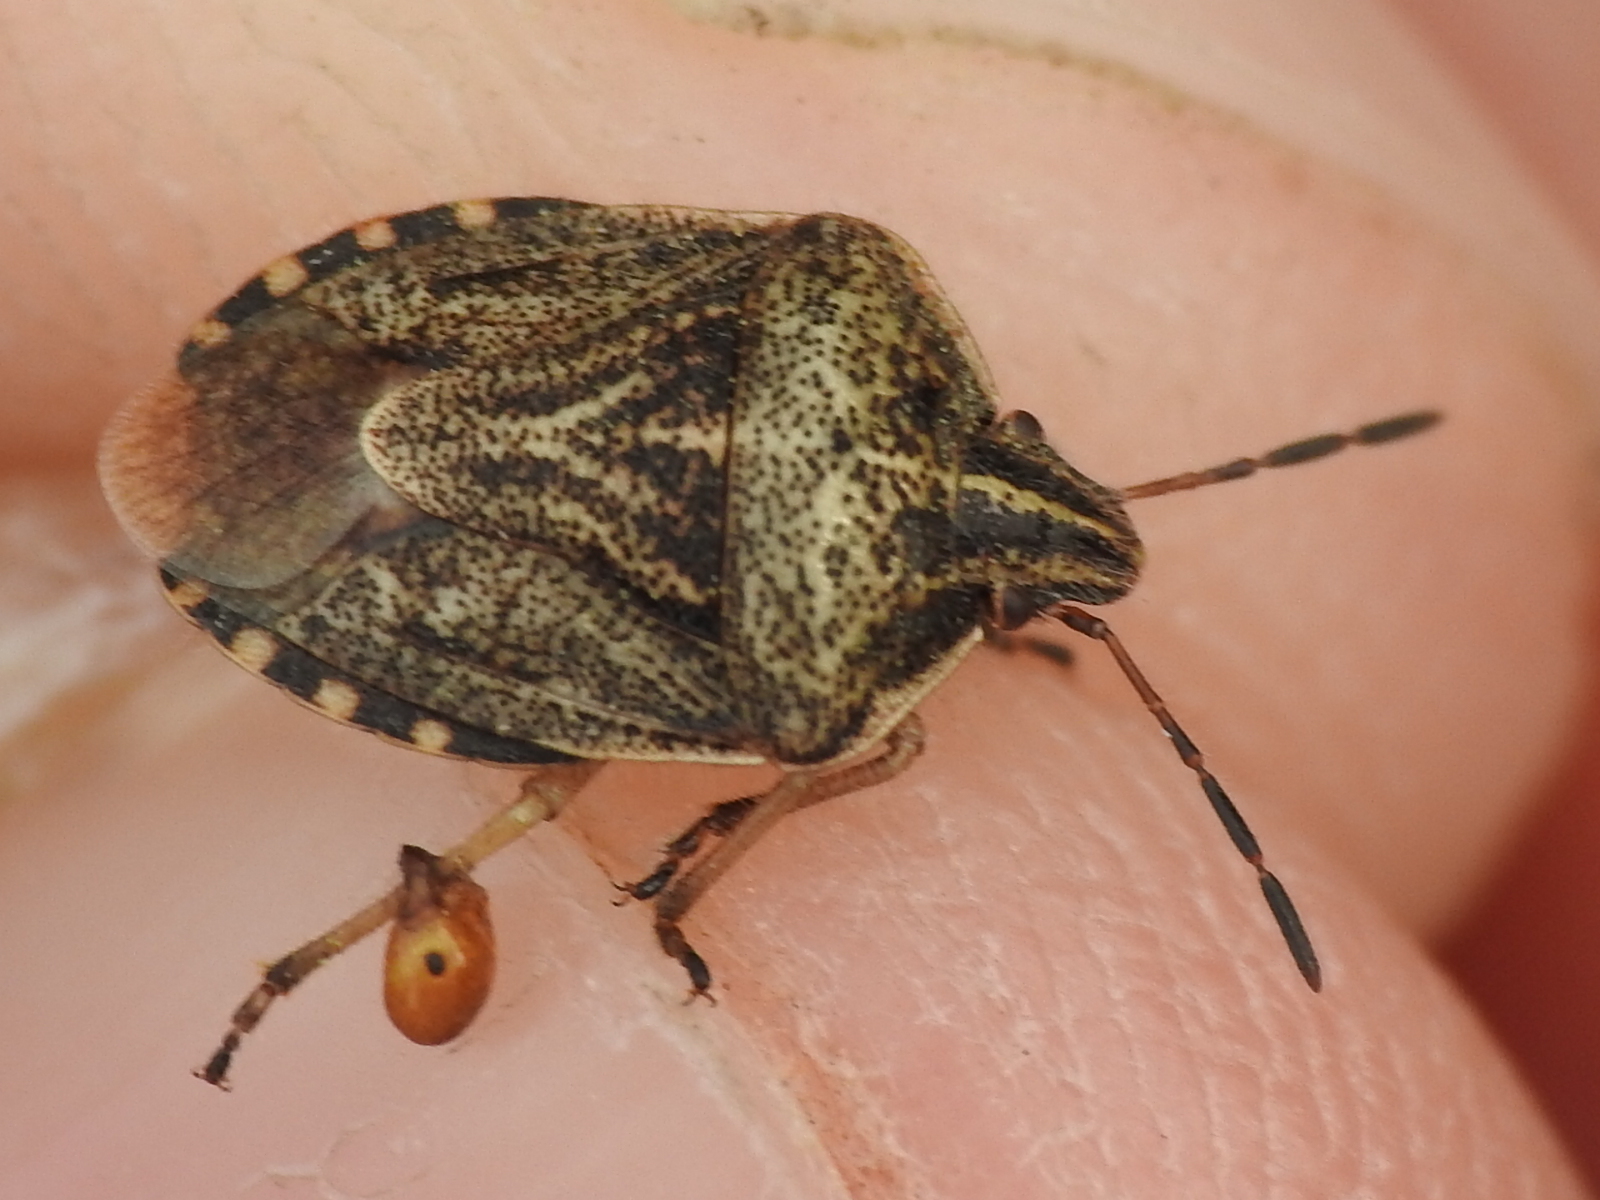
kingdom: Animalia
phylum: Arthropoda
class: Insecta
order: Hemiptera
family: Pentatomidae
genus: Trichopepla
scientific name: Trichopepla semivittata
